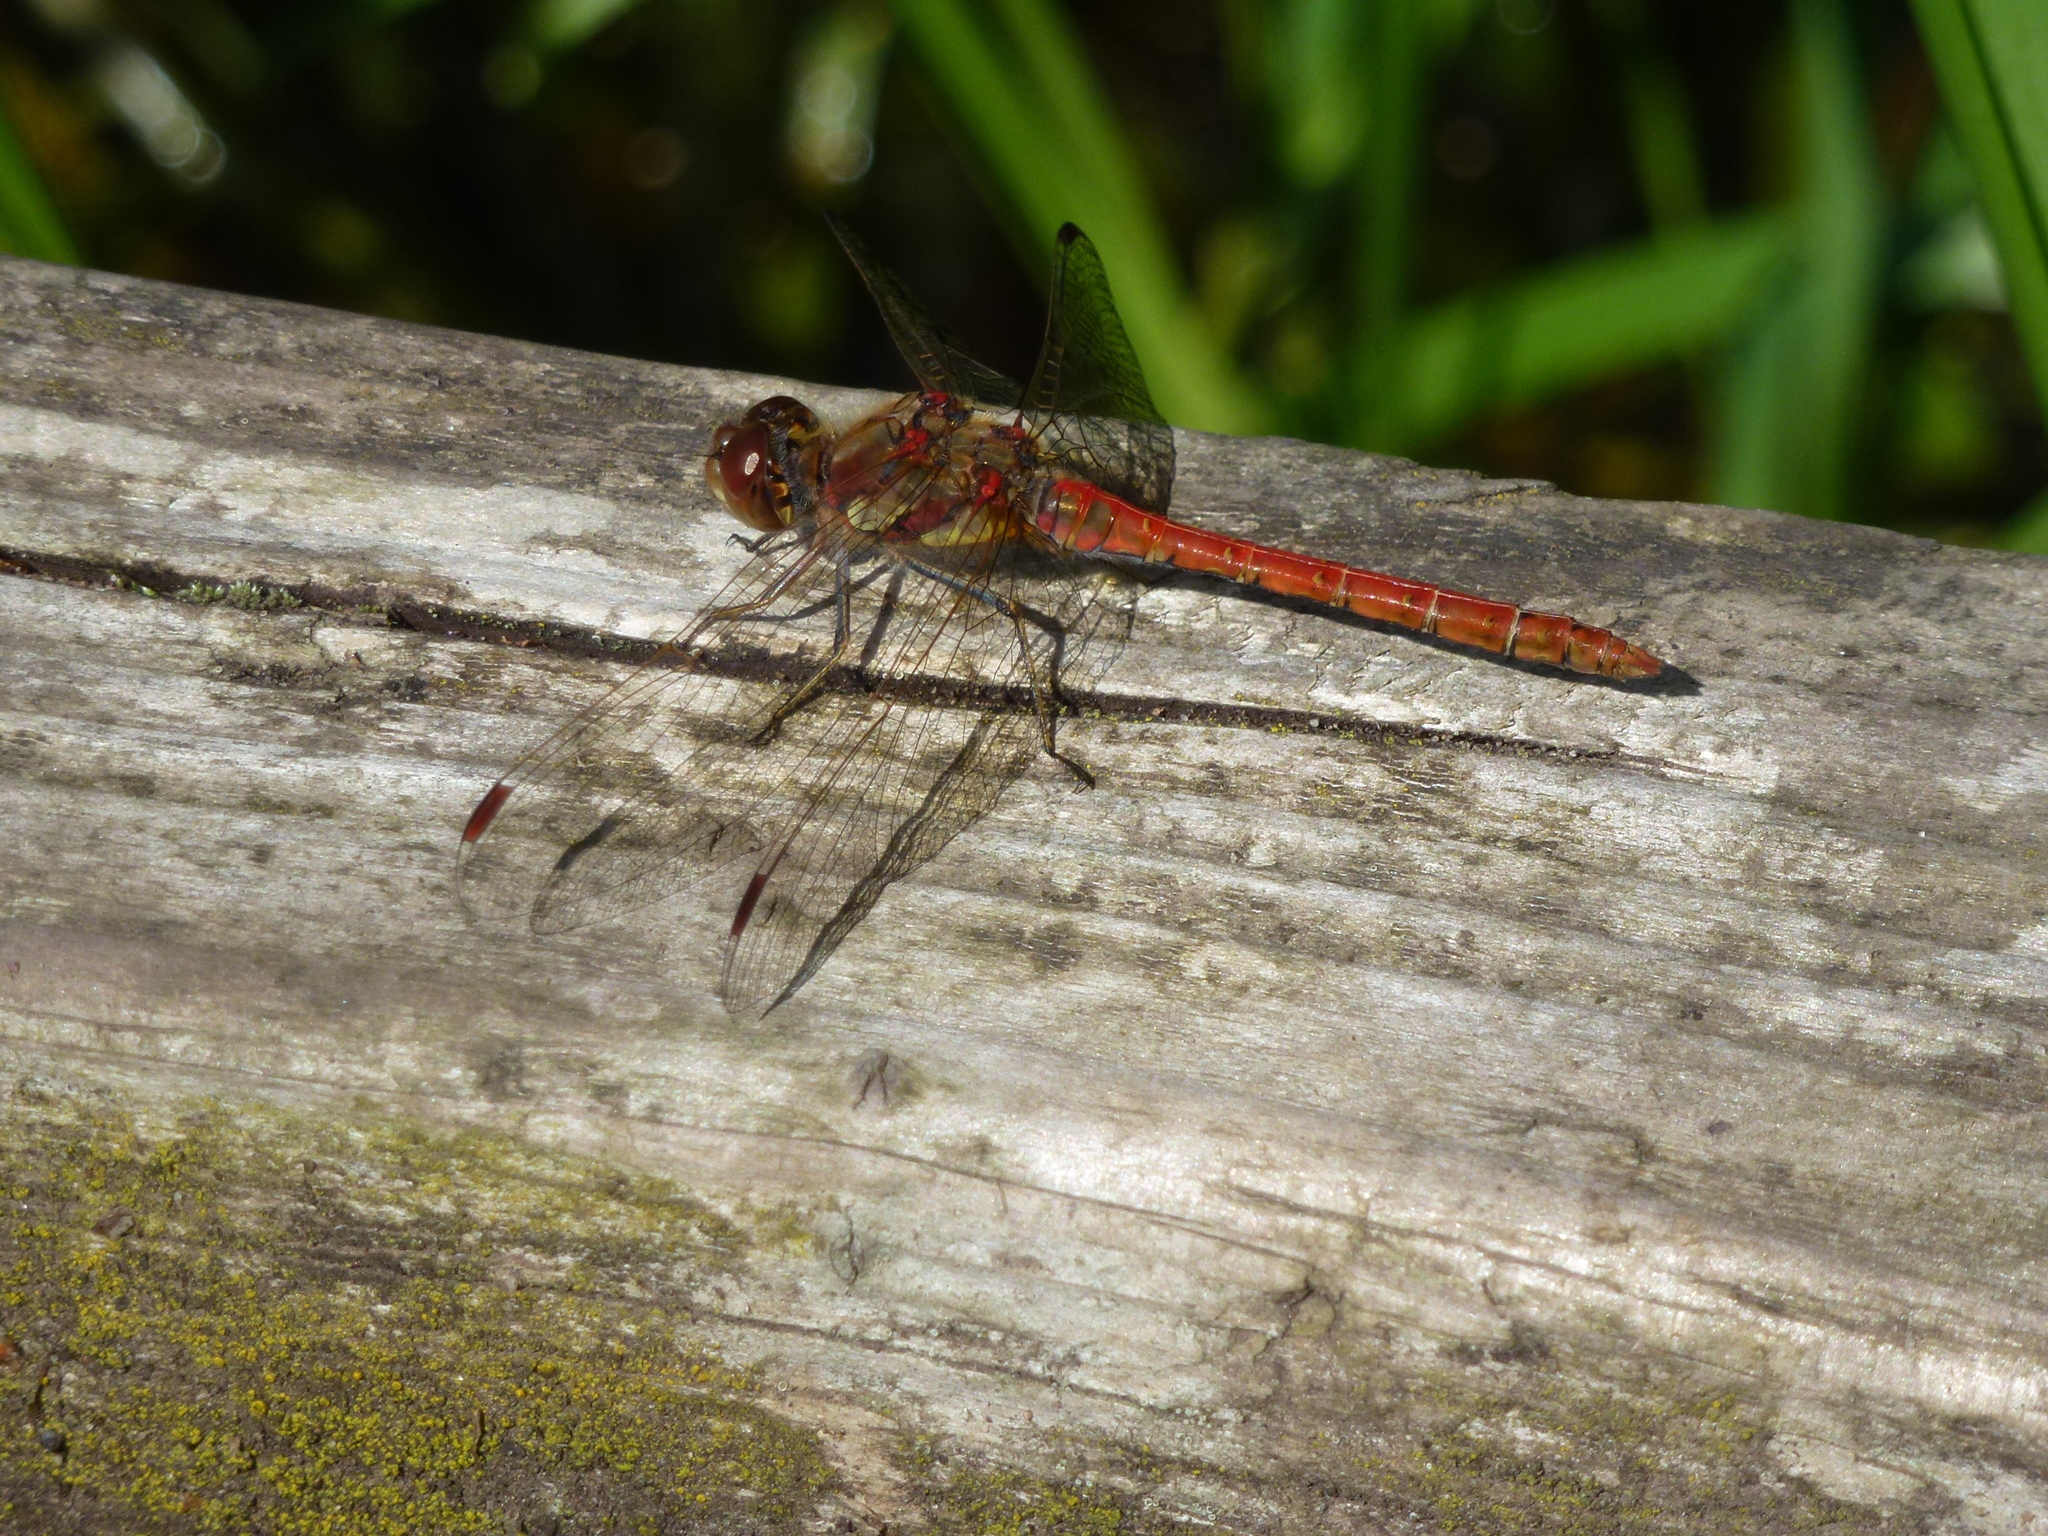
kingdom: Animalia
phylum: Arthropoda
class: Insecta
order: Odonata
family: Libellulidae
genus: Sympetrum
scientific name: Sympetrum striolatum
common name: Common darter
